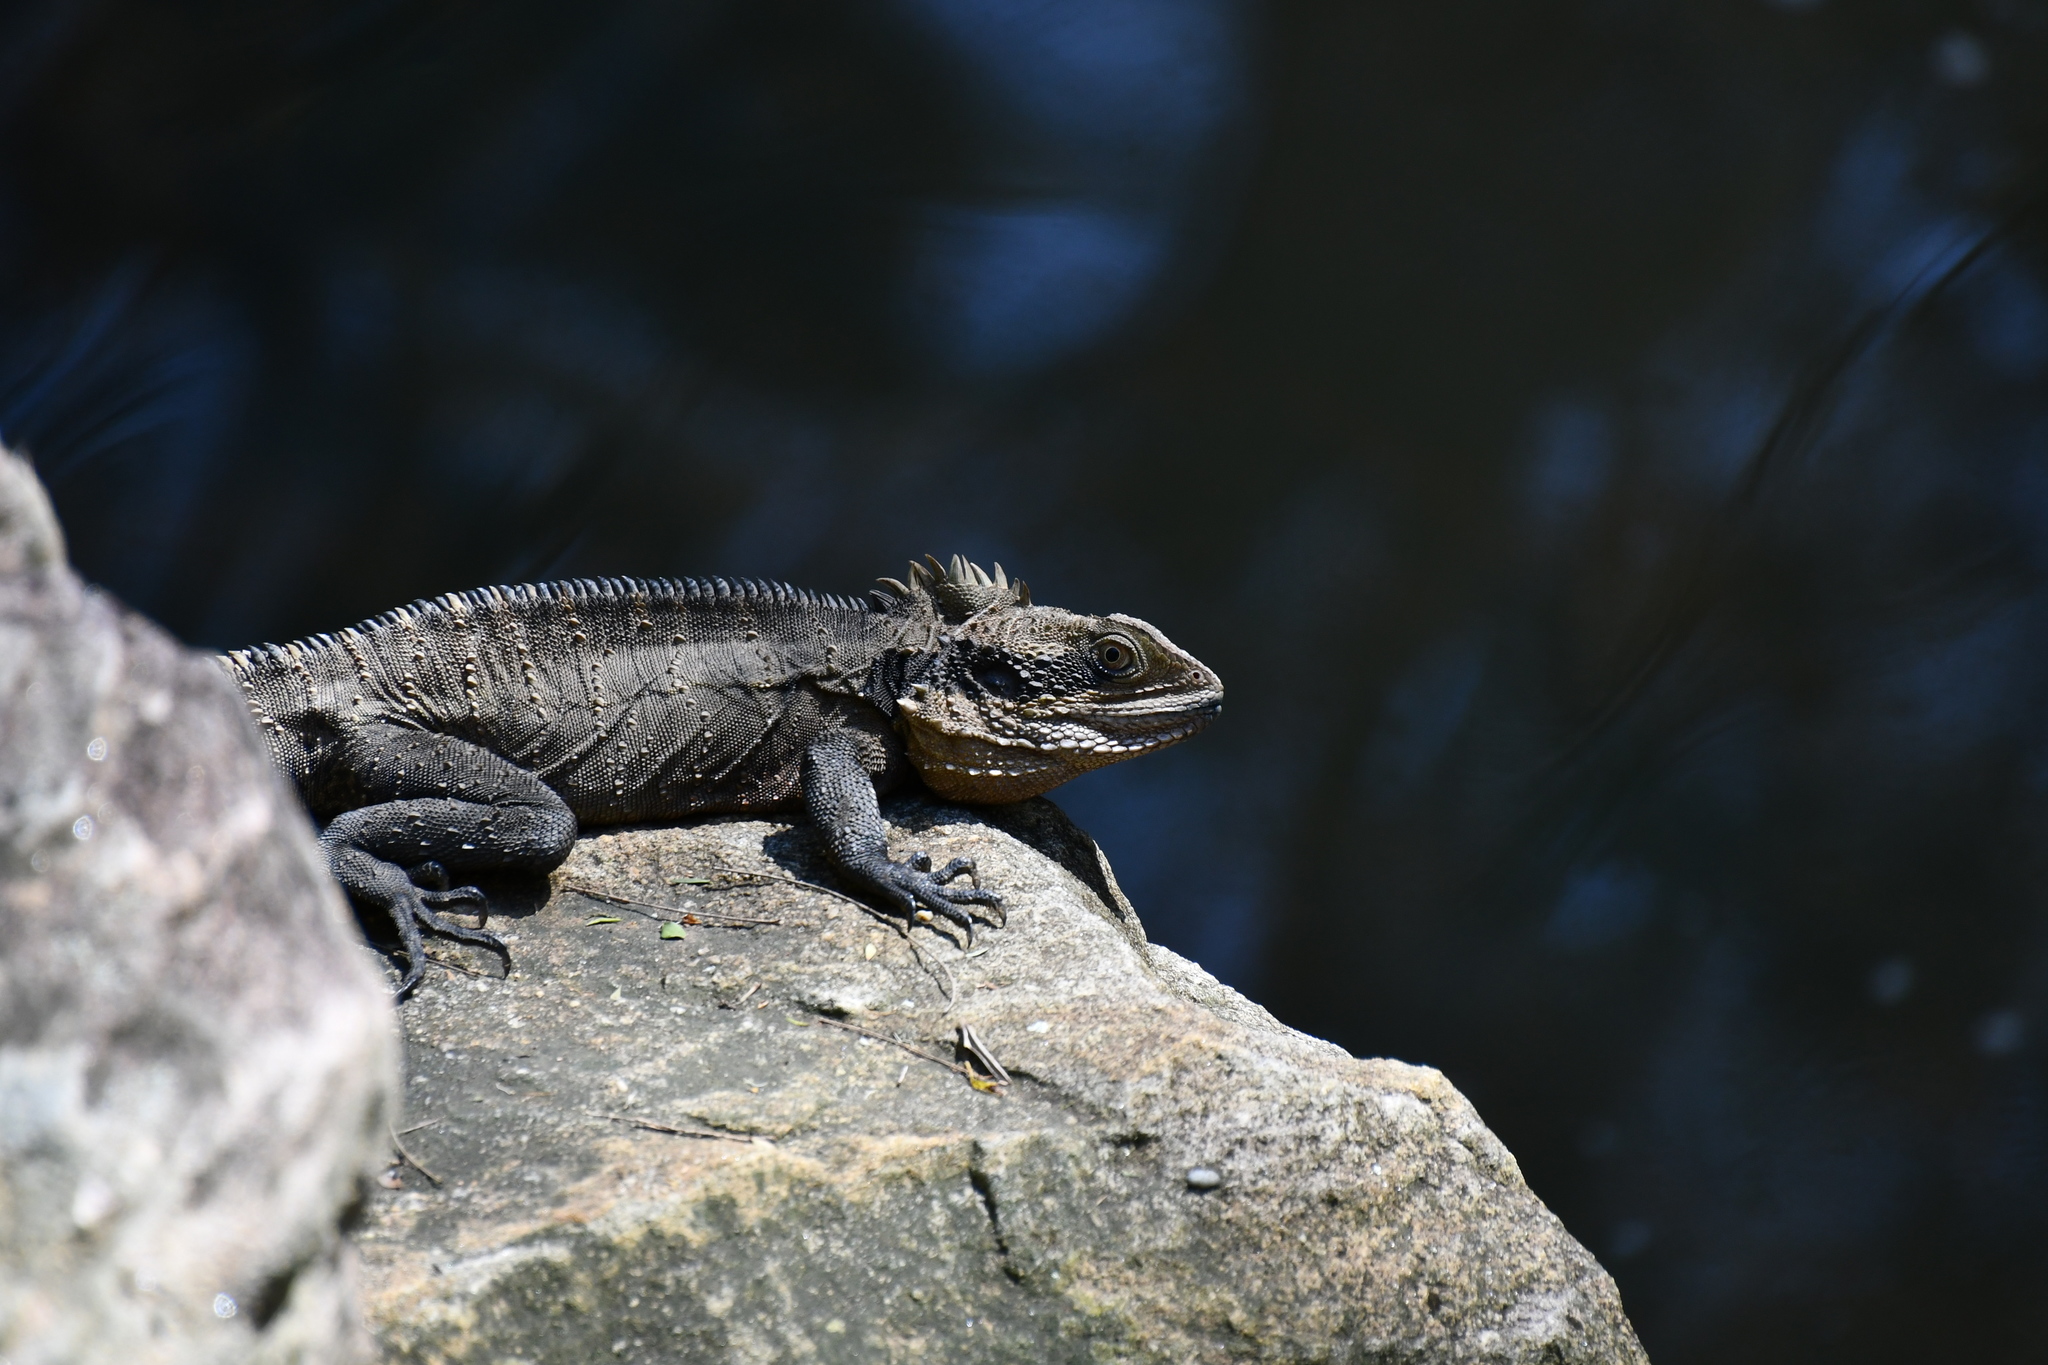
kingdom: Animalia
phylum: Chordata
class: Squamata
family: Agamidae
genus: Intellagama
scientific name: Intellagama lesueurii
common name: Eastern water dragon
